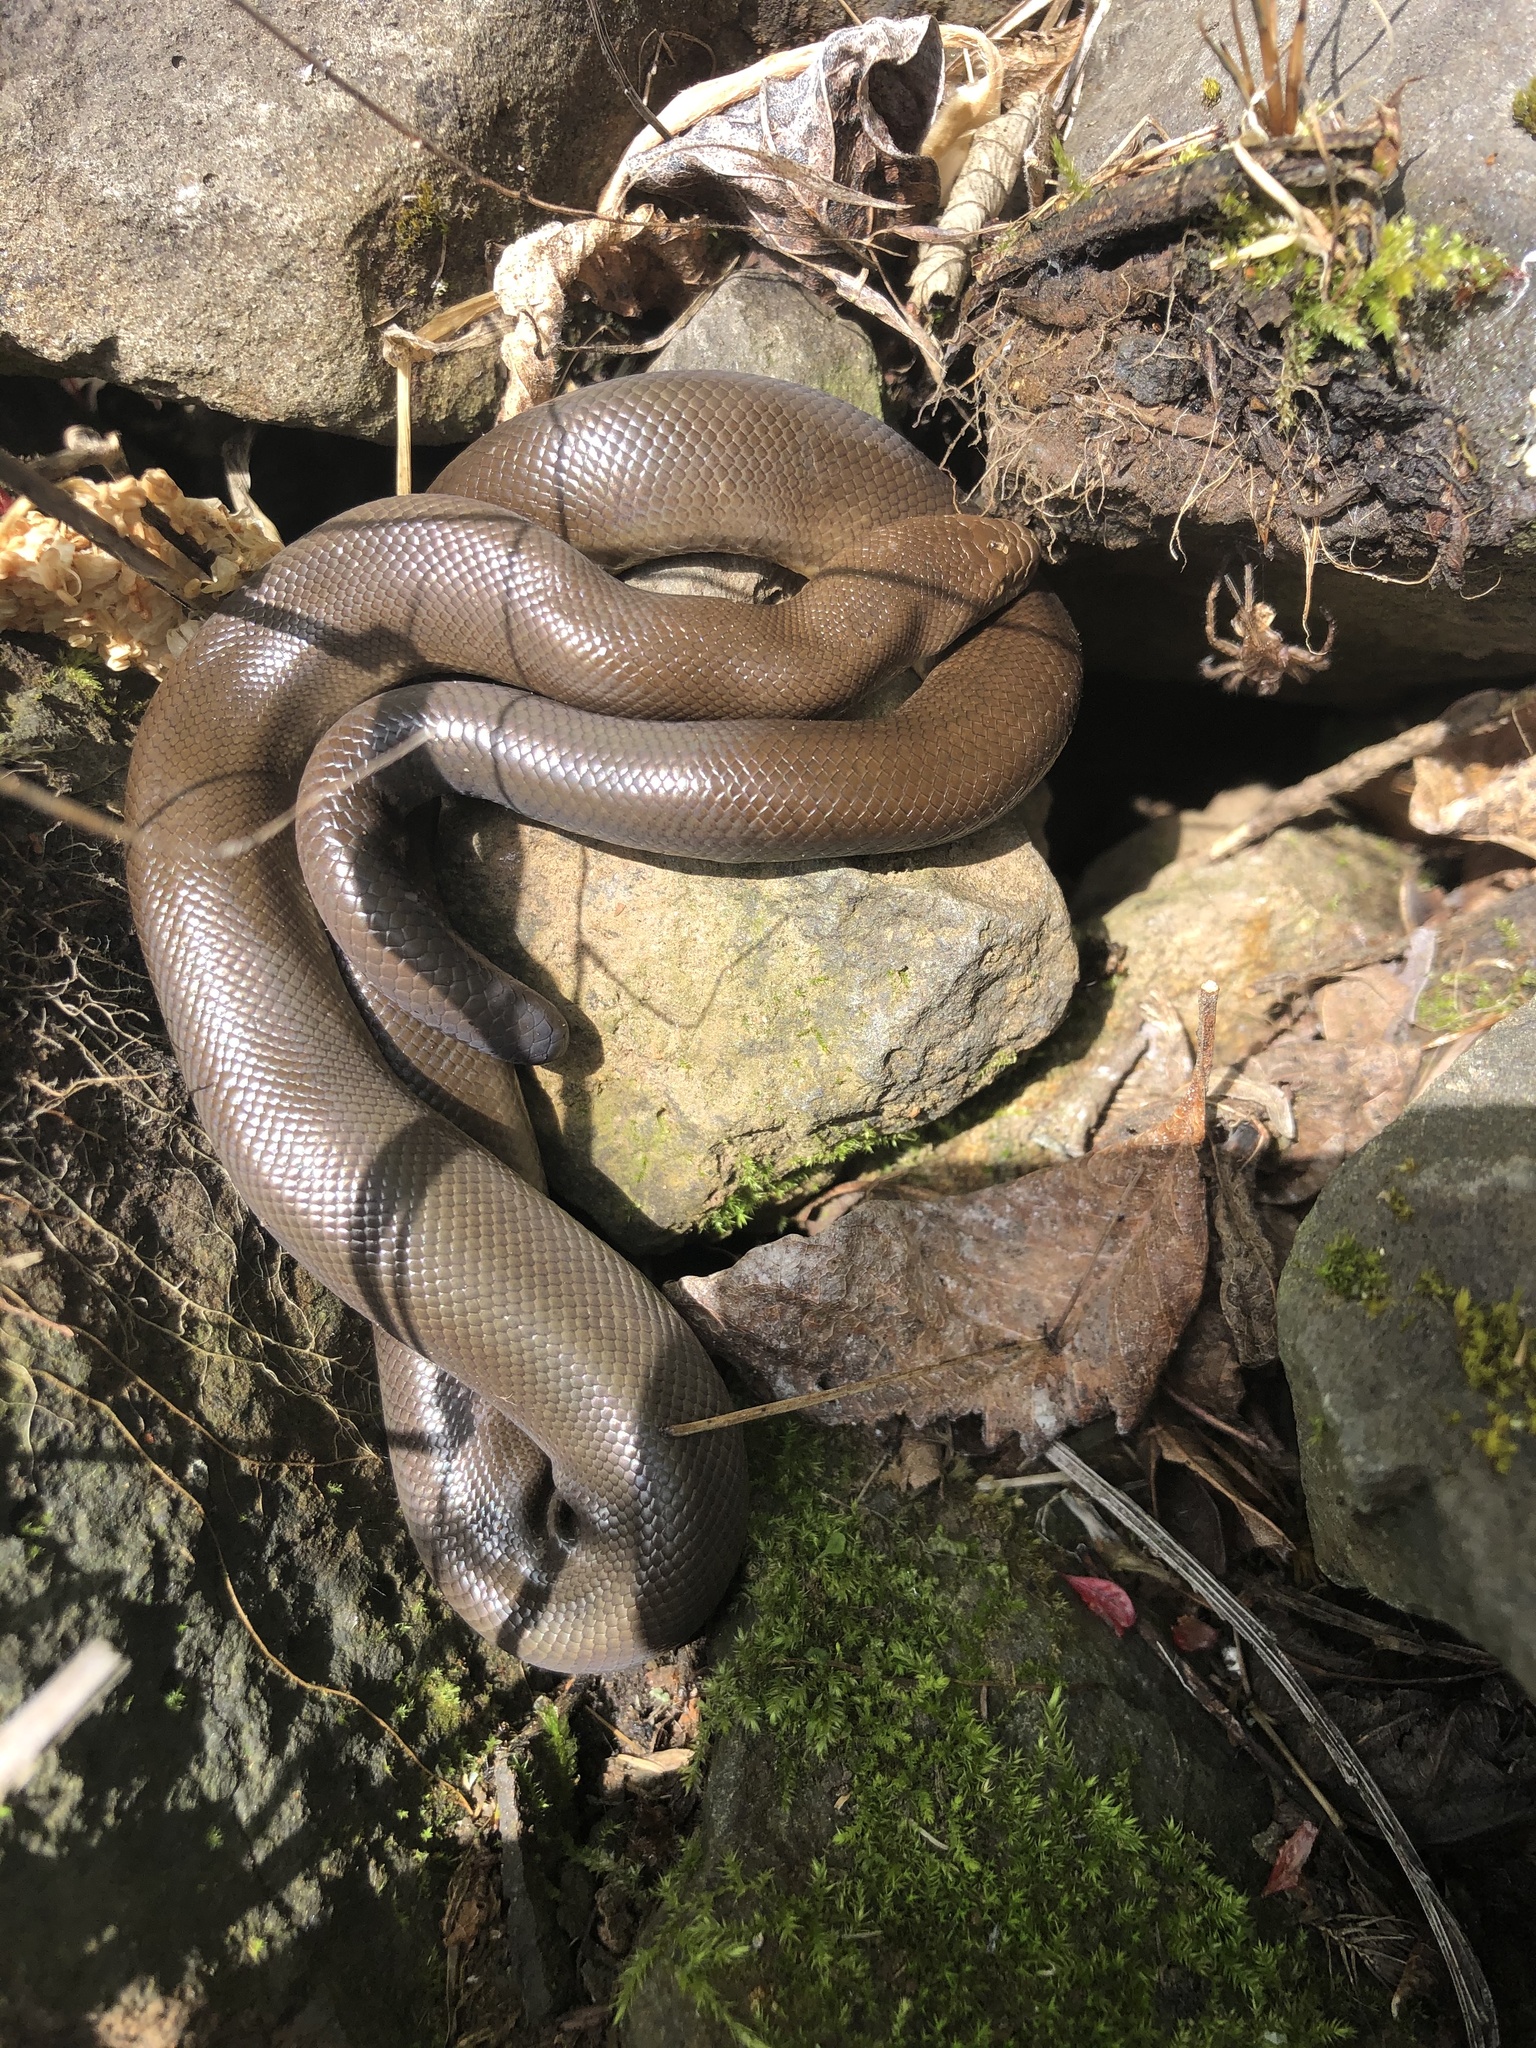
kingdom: Animalia
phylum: Chordata
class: Squamata
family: Boidae
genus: Charina
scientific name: Charina bottae
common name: Northern rubber boa
